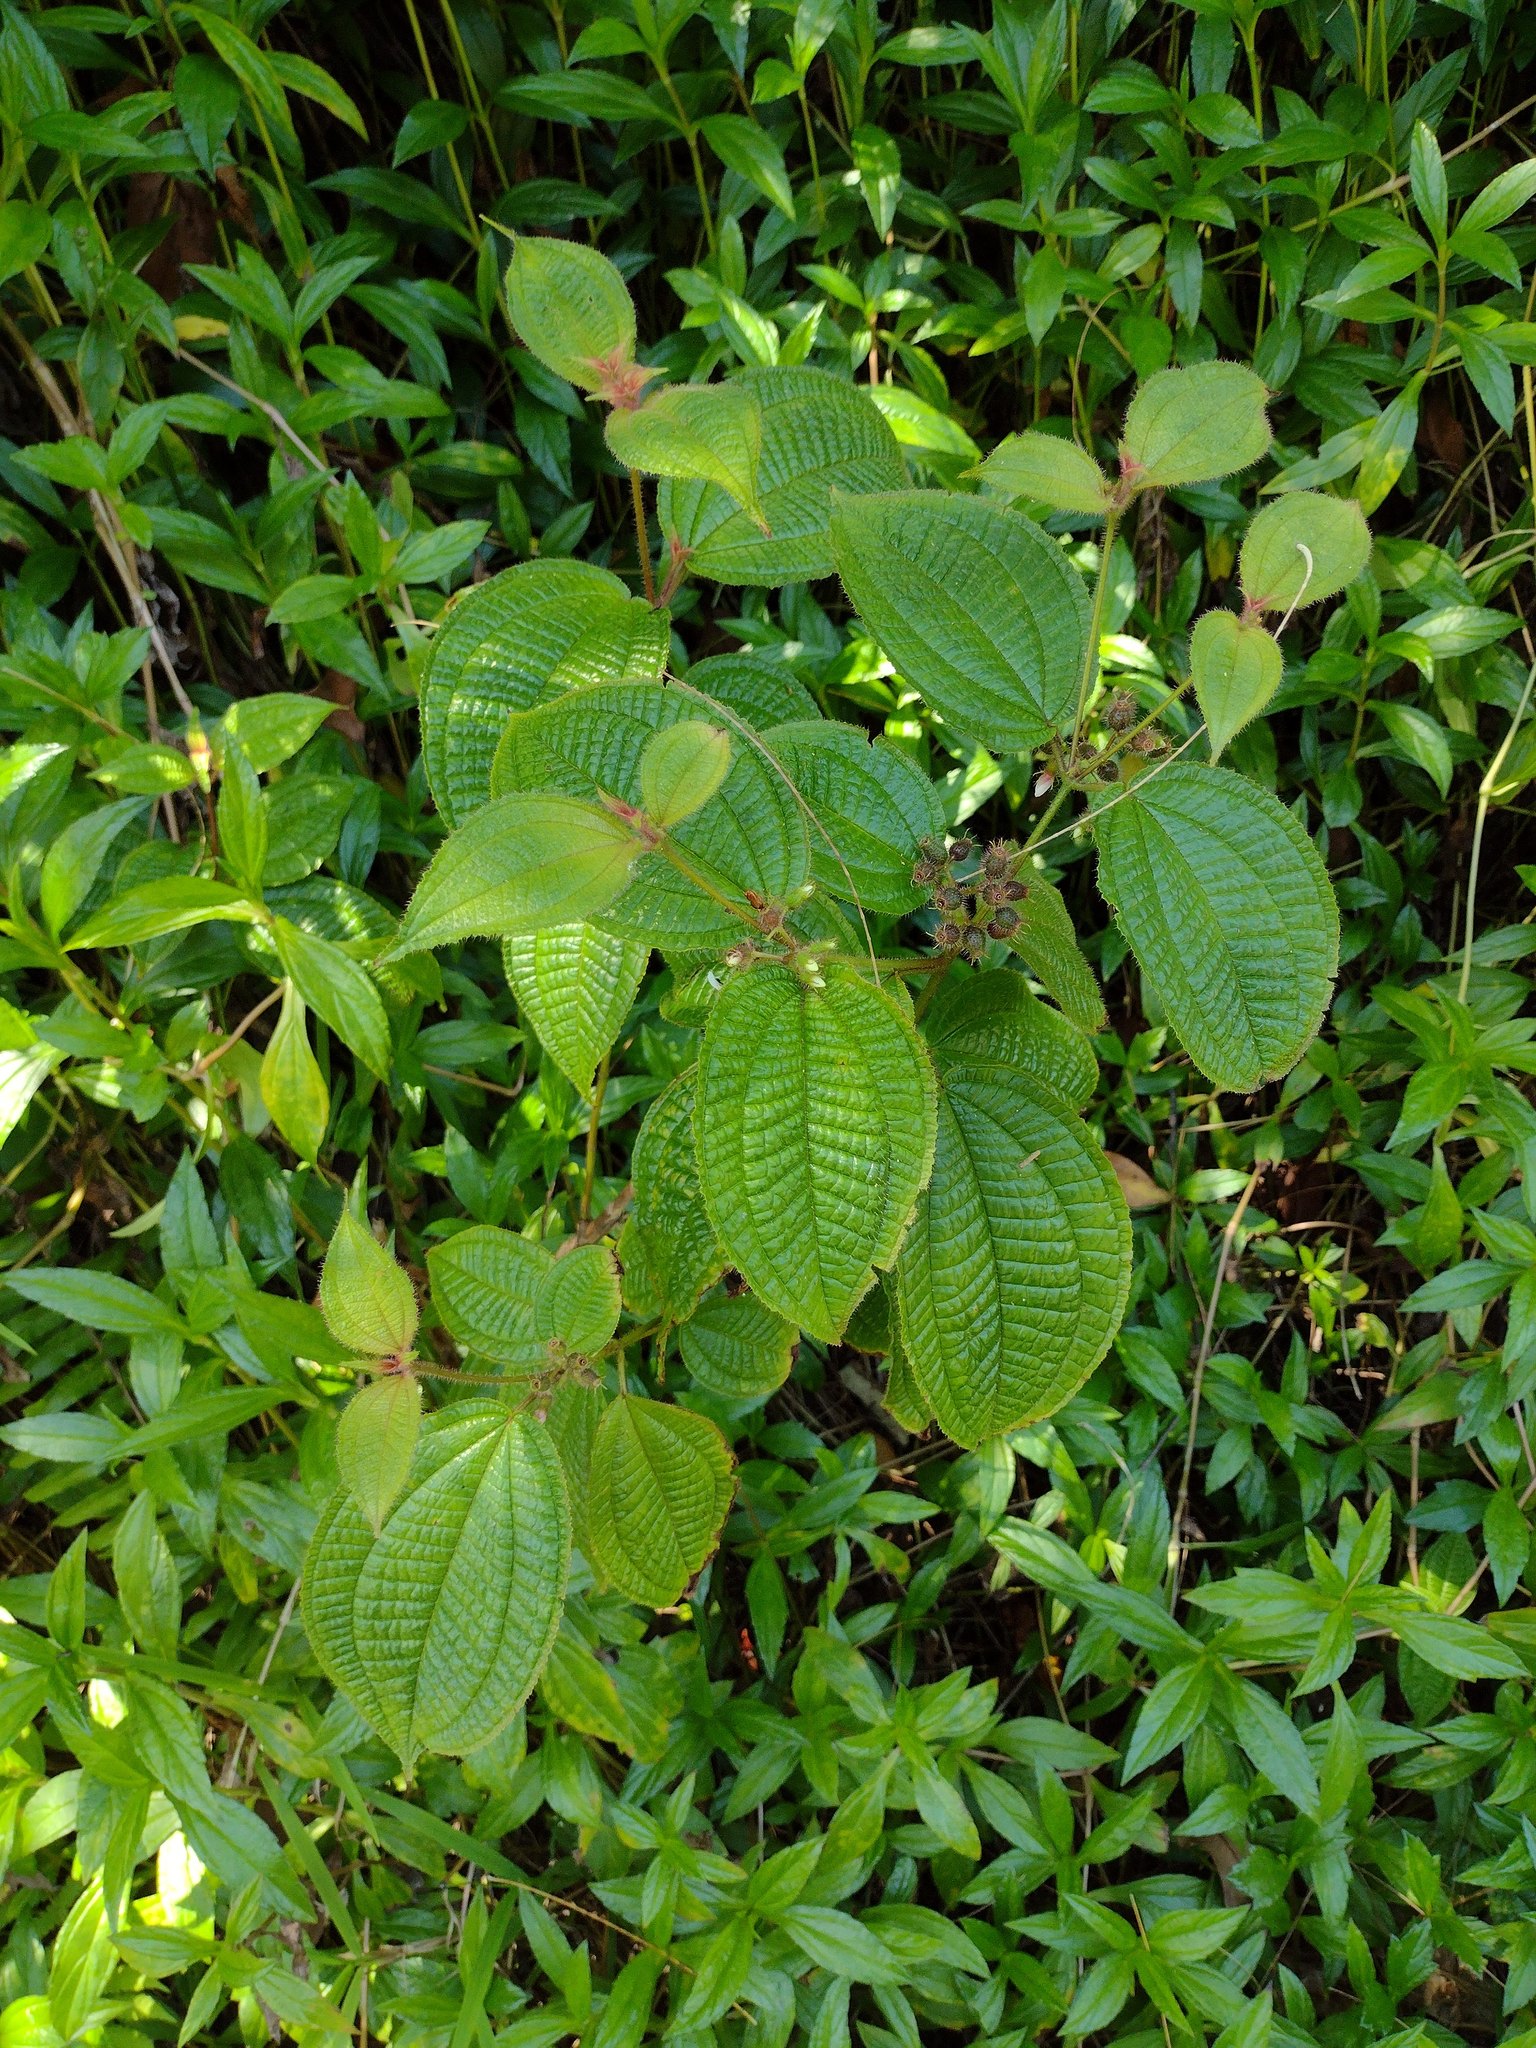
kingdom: Plantae
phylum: Tracheophyta
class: Magnoliopsida
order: Myrtales
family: Melastomataceae
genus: Miconia
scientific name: Miconia crenata
